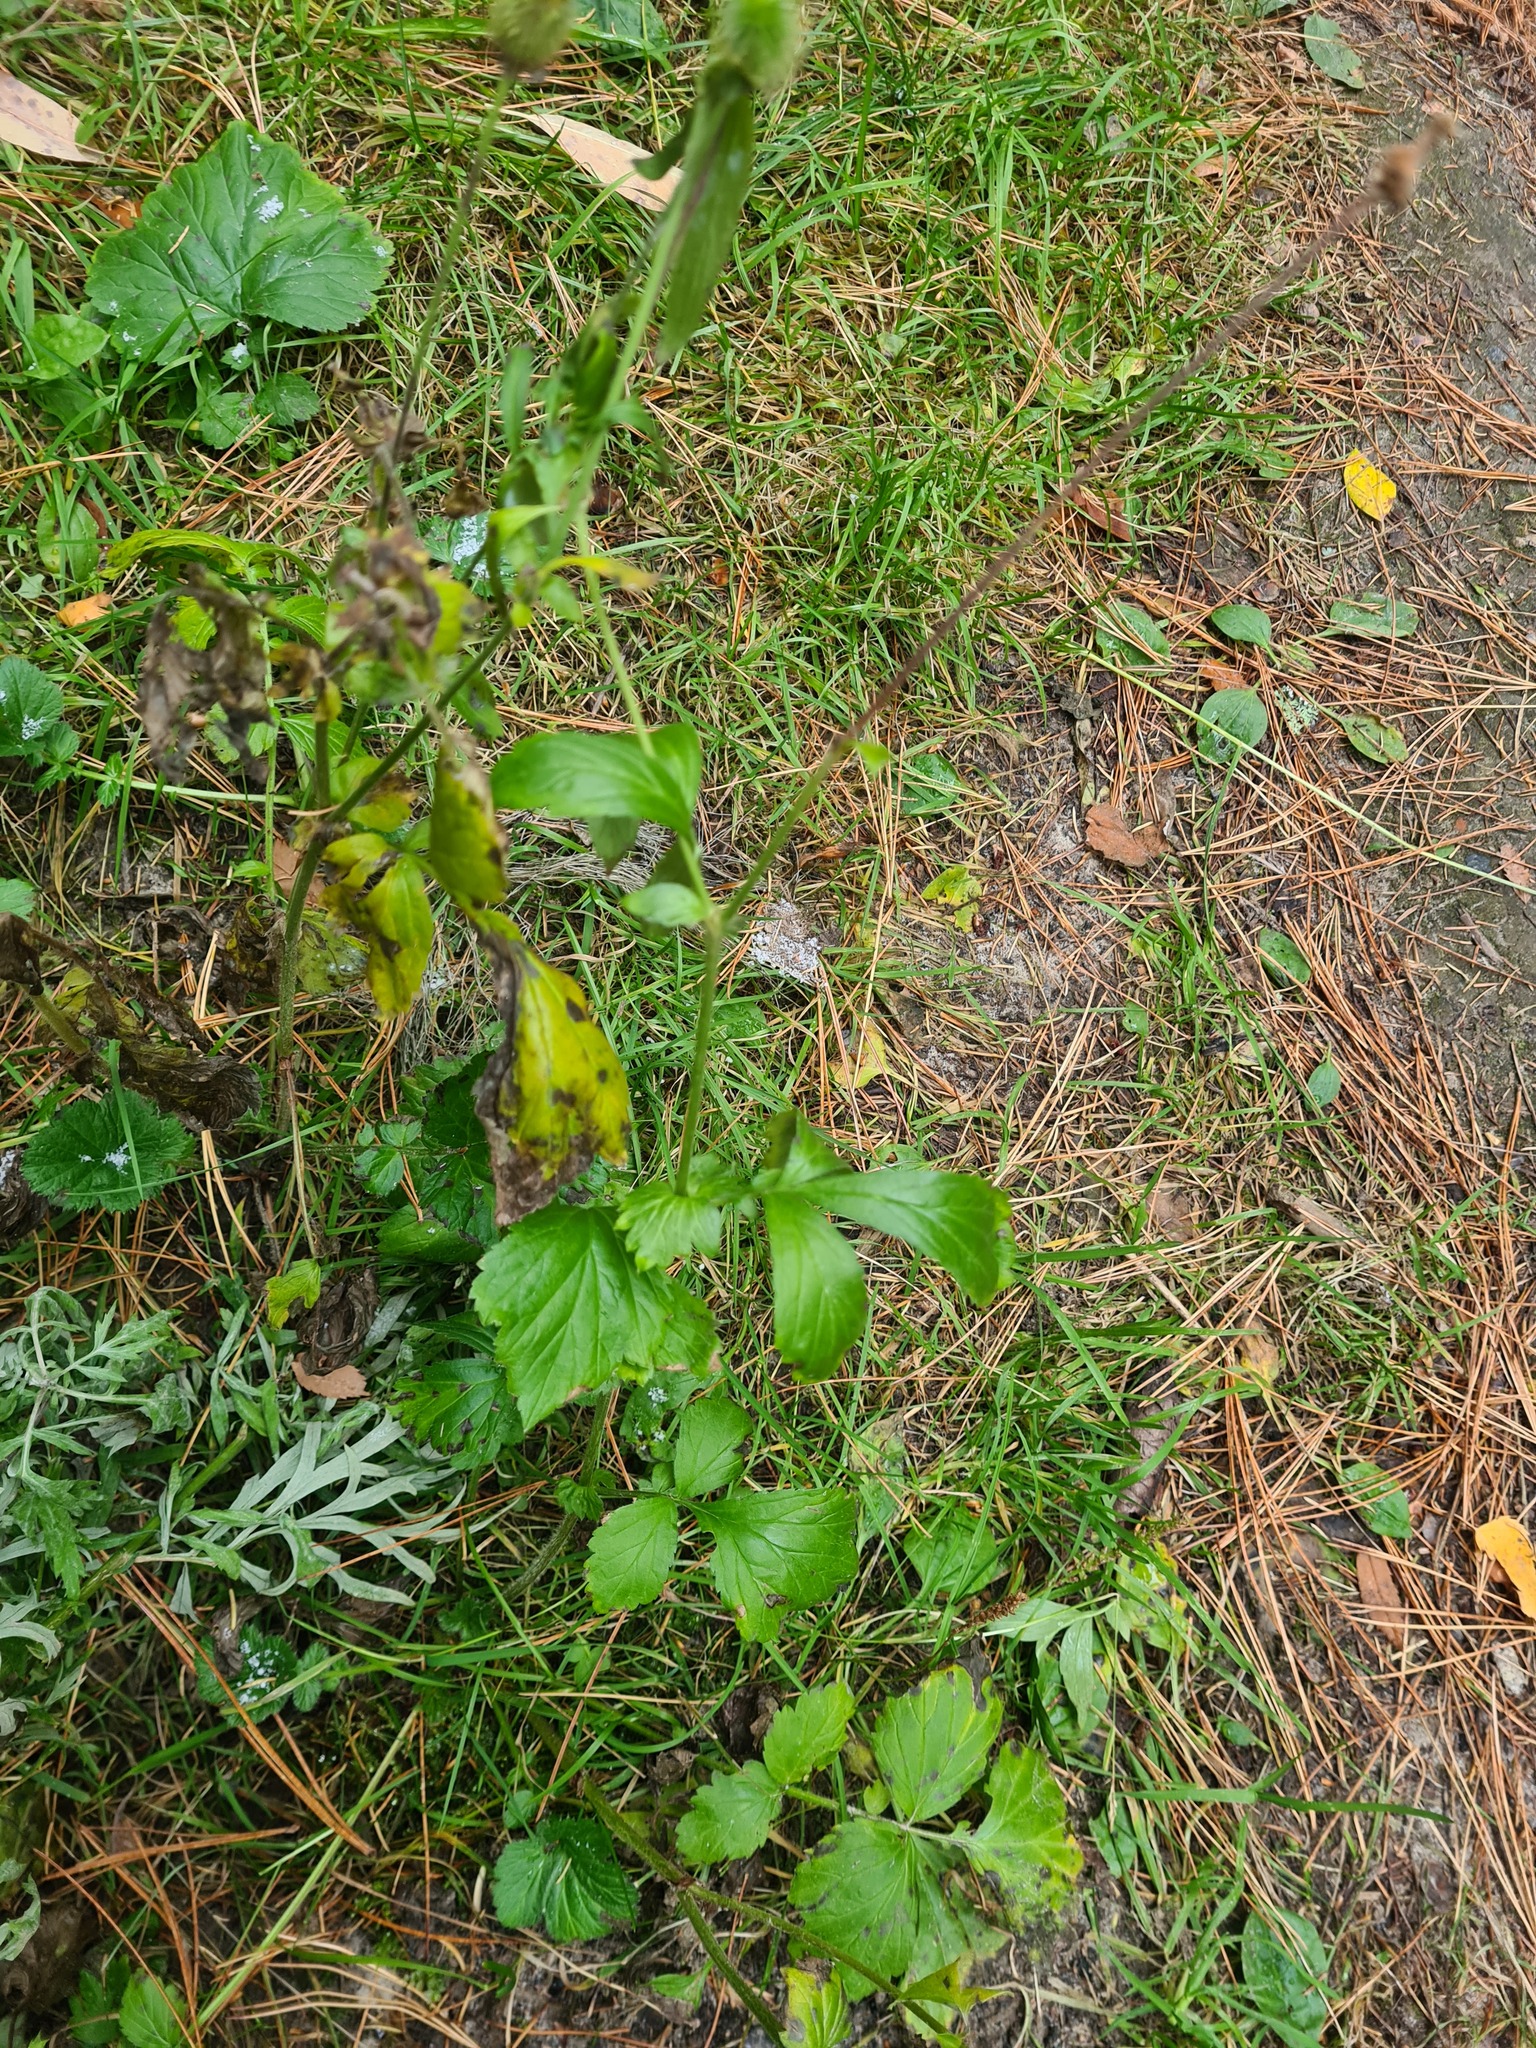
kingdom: Plantae
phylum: Tracheophyta
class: Magnoliopsida
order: Rosales
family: Rosaceae
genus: Geum
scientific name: Geum aleppicum
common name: Yellow avens
